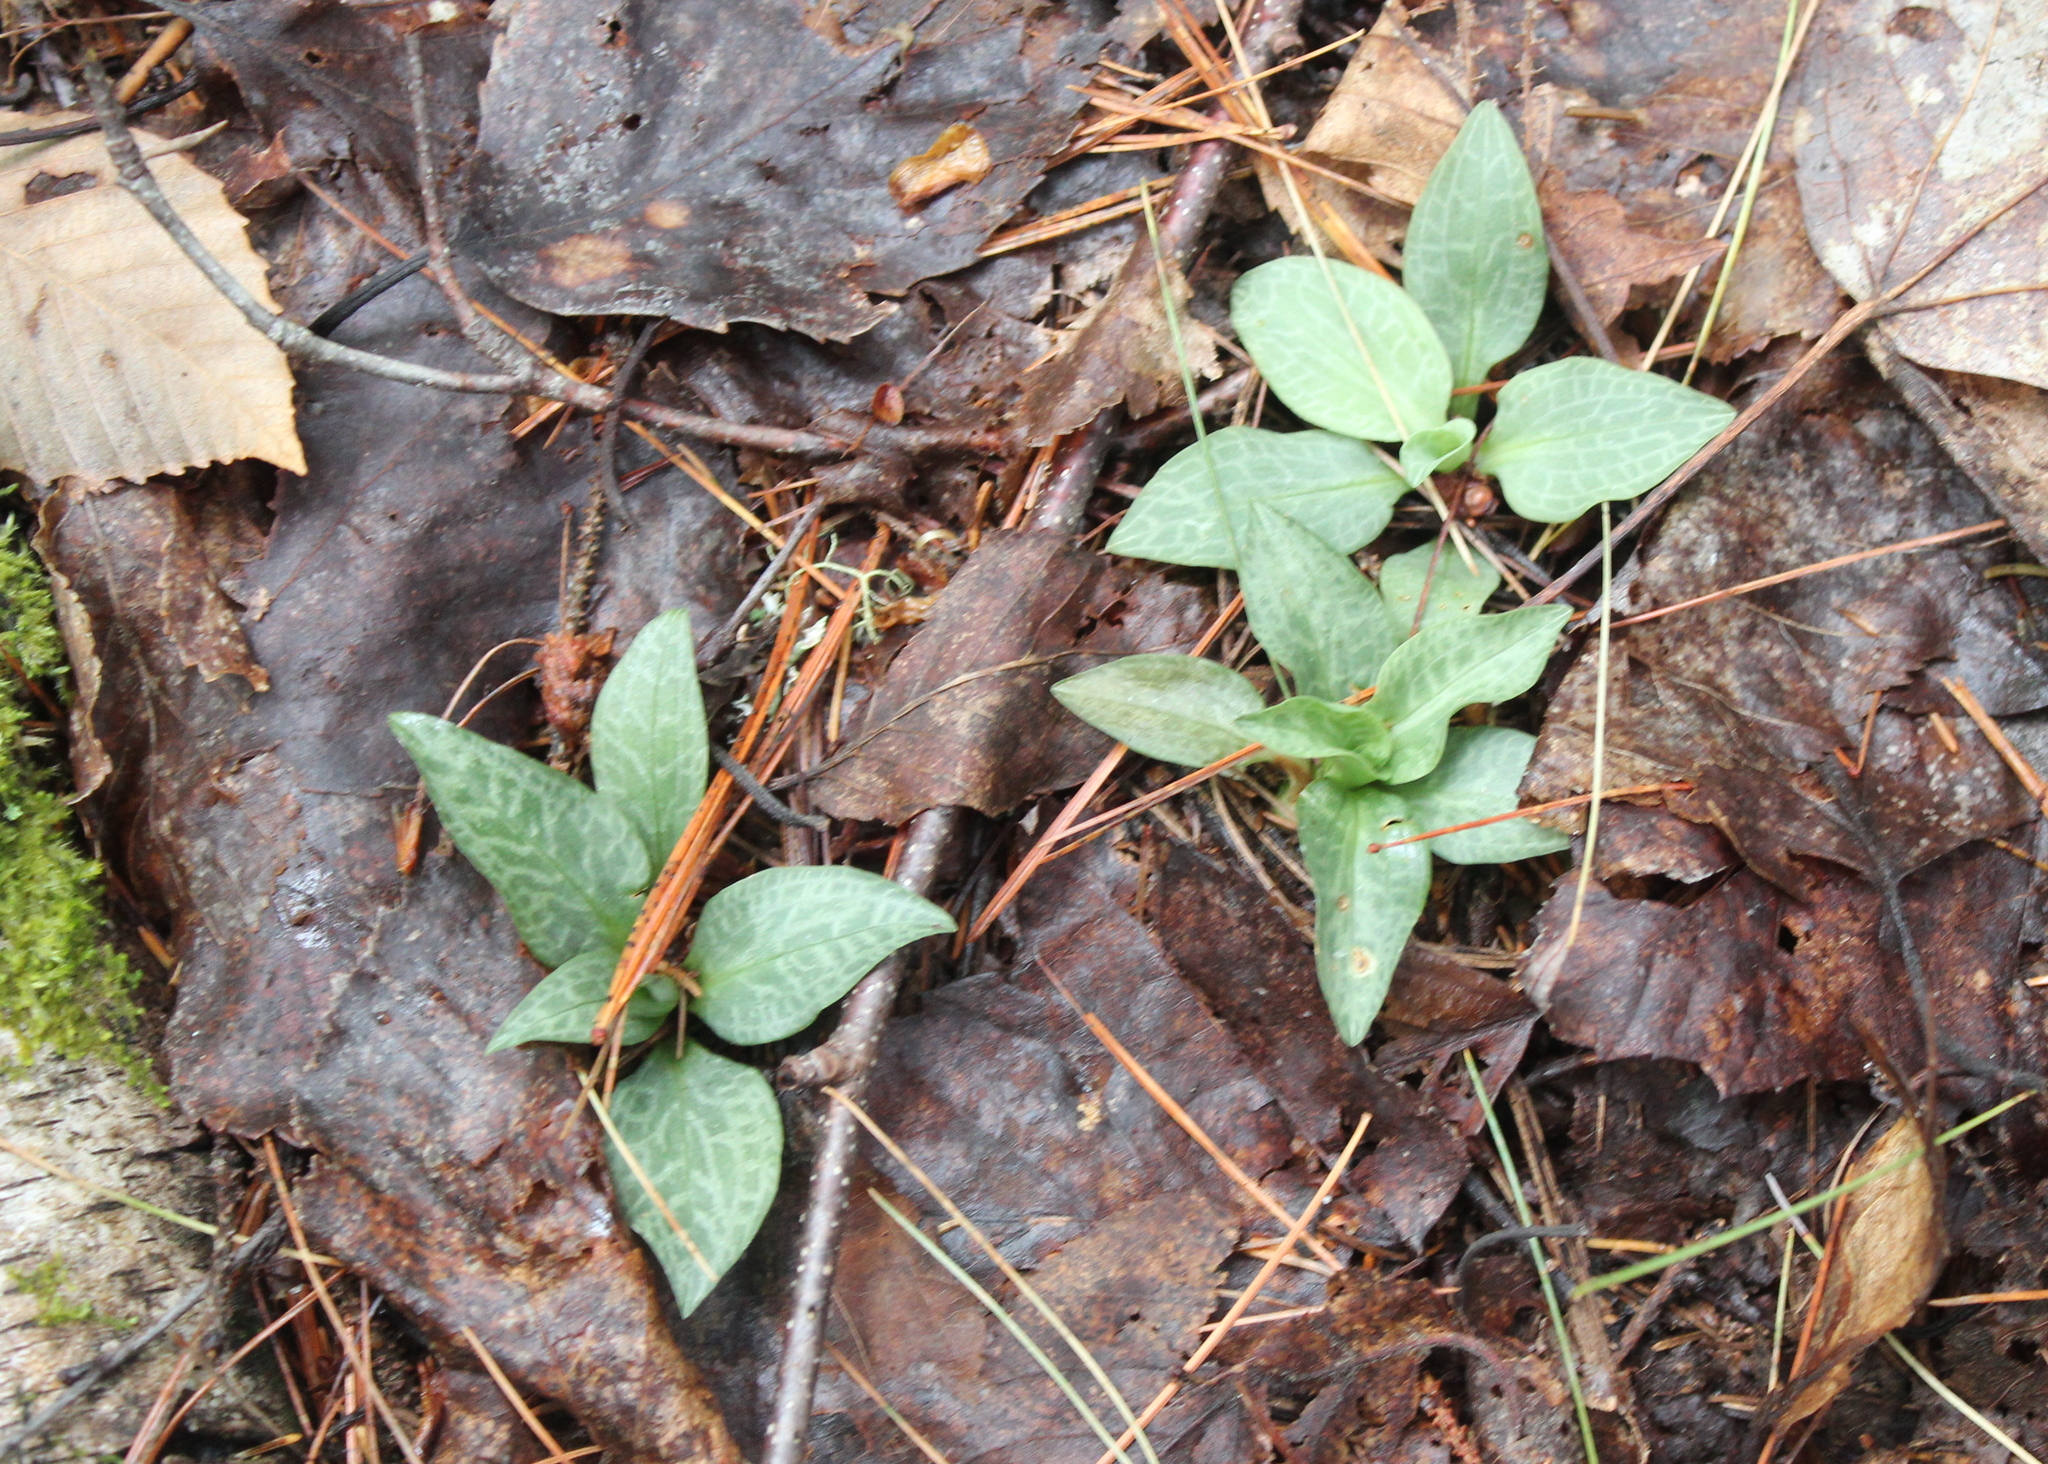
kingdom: Plantae
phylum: Tracheophyta
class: Liliopsida
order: Asparagales
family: Orchidaceae
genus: Goodyera
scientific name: Goodyera tesselata
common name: Checkered rattlesnake-plantain
